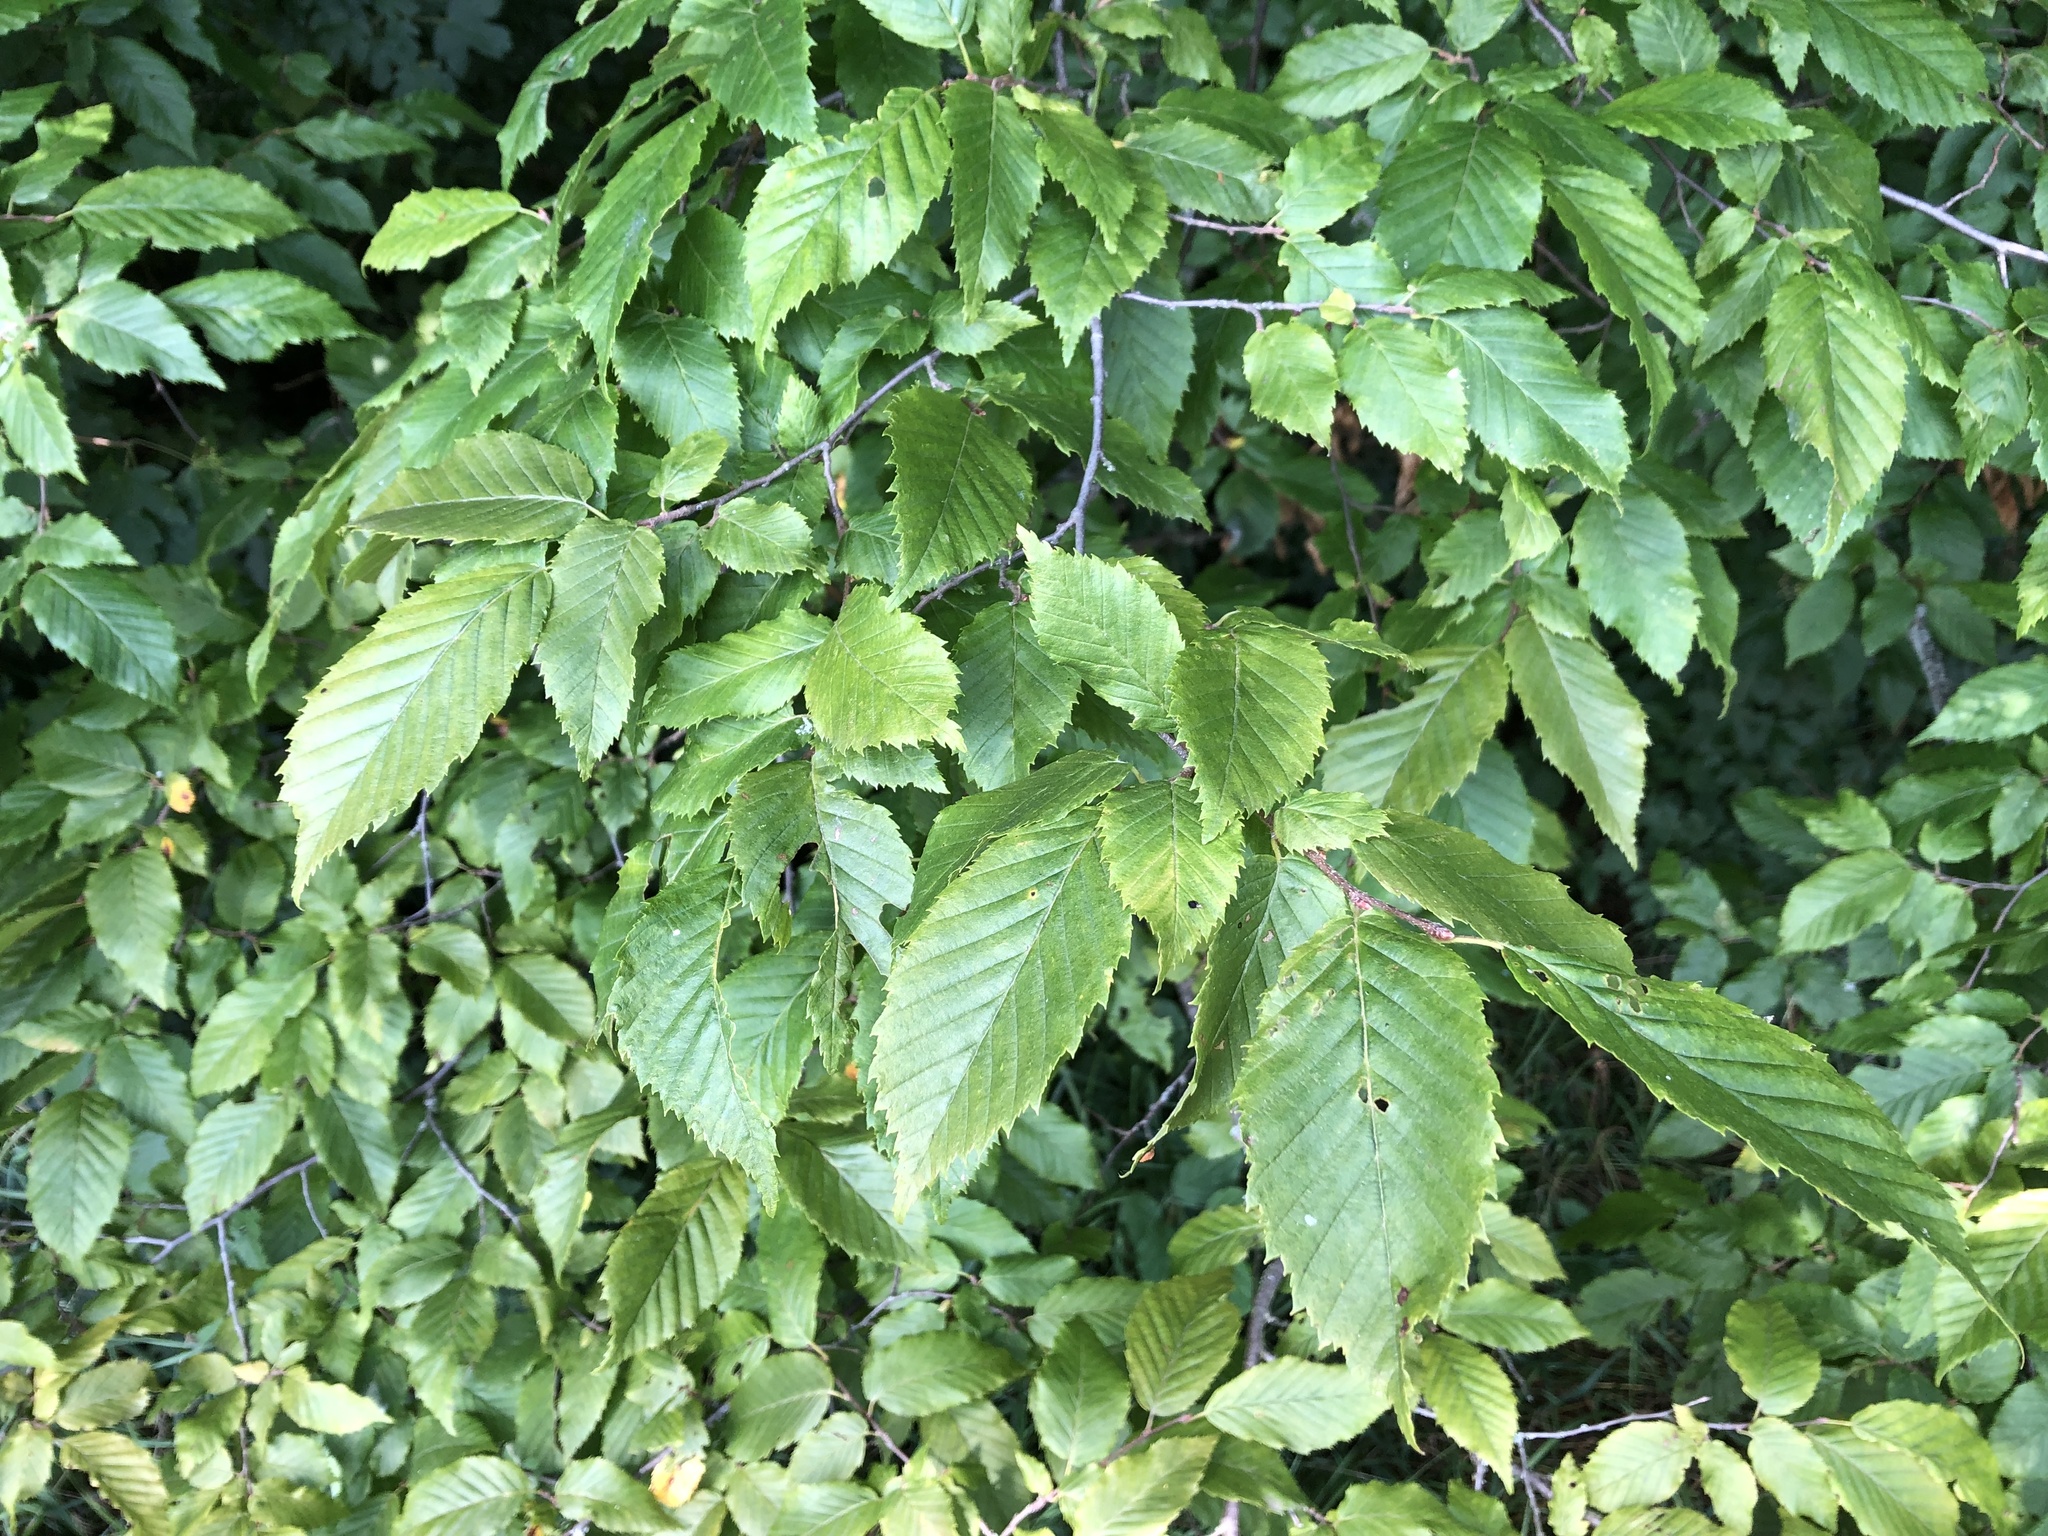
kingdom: Plantae
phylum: Tracheophyta
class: Magnoliopsida
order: Fagales
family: Betulaceae
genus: Carpinus
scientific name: Carpinus betulus
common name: Hornbeam
